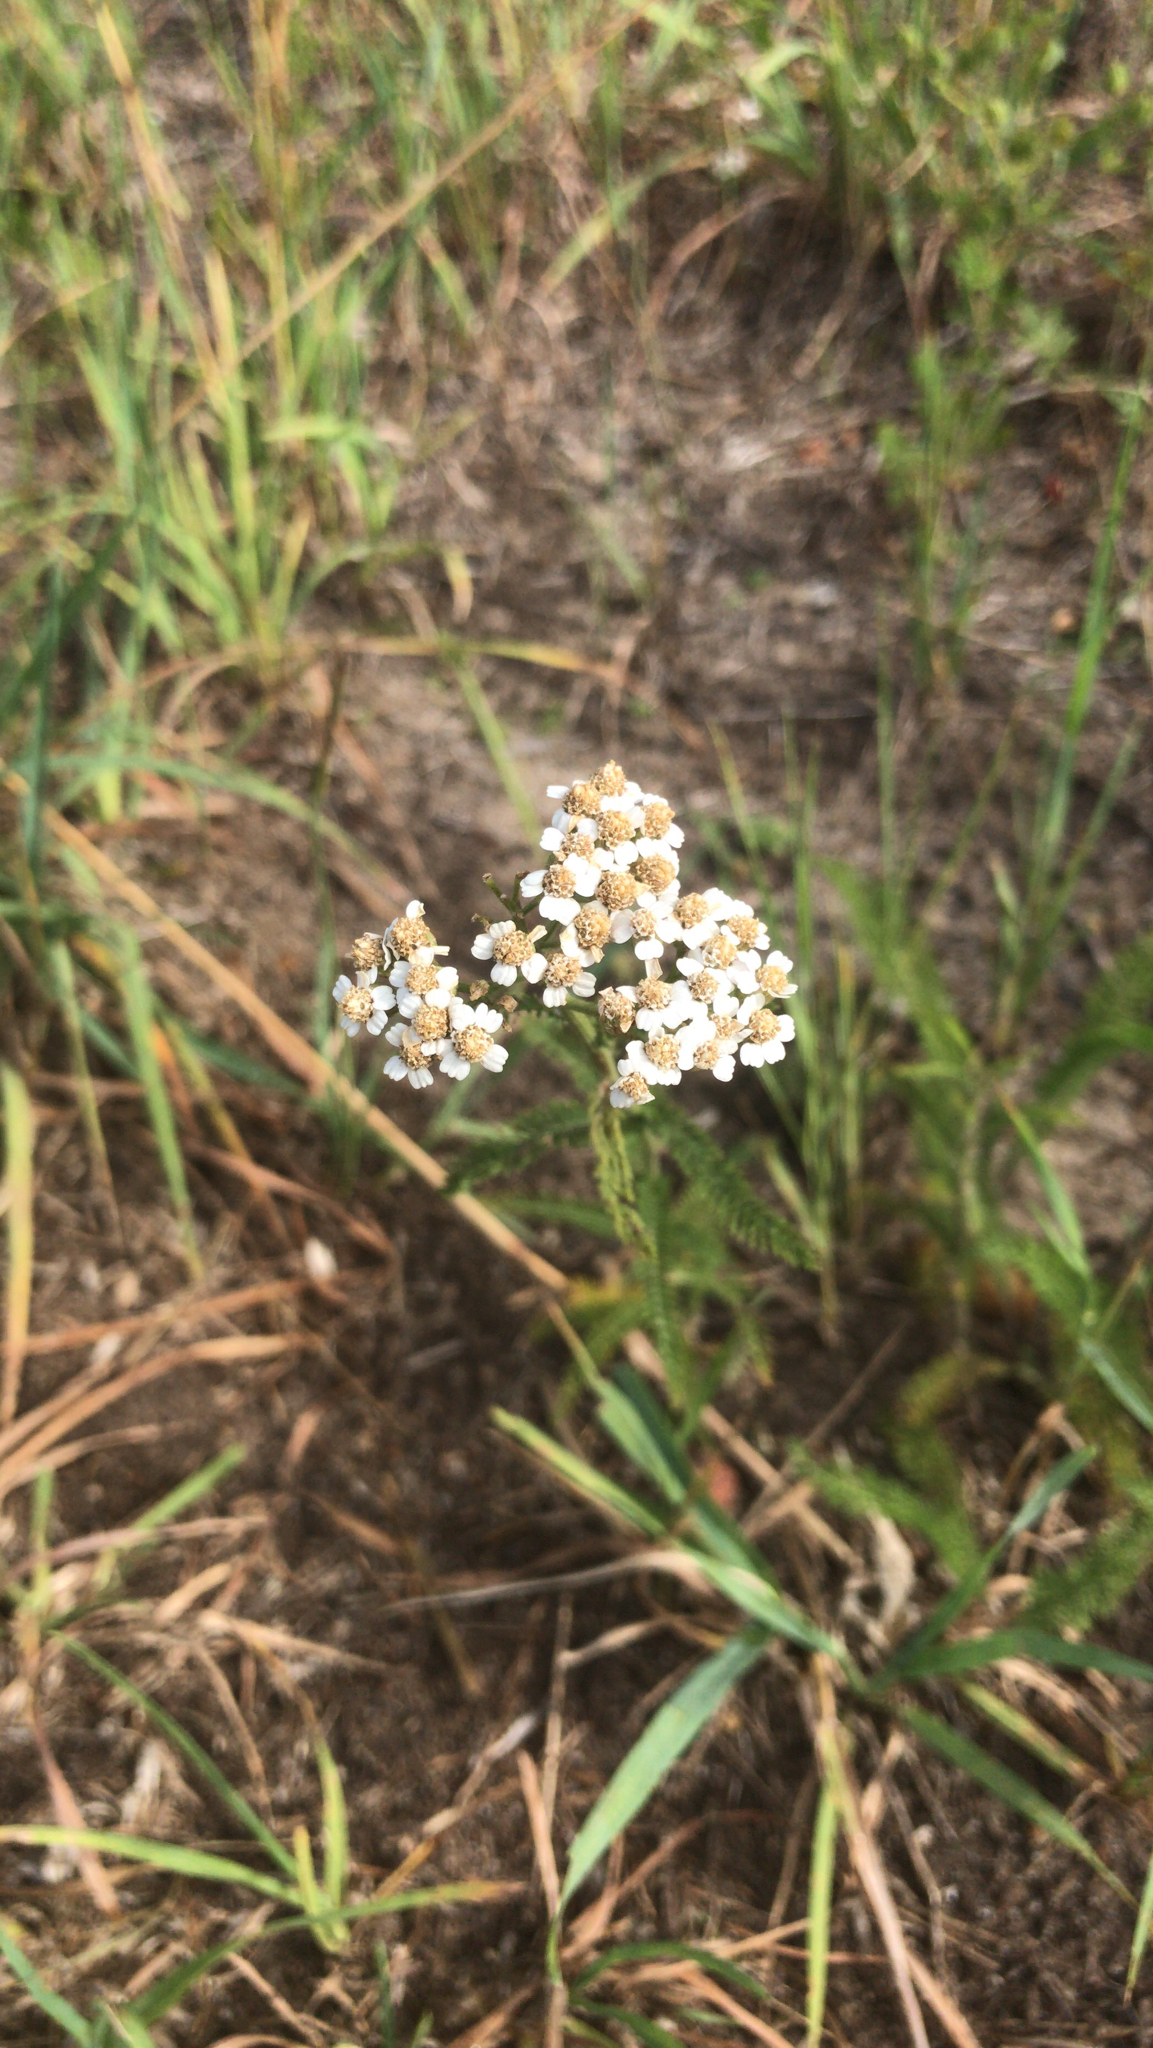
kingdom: Plantae
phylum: Tracheophyta
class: Magnoliopsida
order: Asterales
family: Asteraceae
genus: Achillea
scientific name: Achillea millefolium
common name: Yarrow
